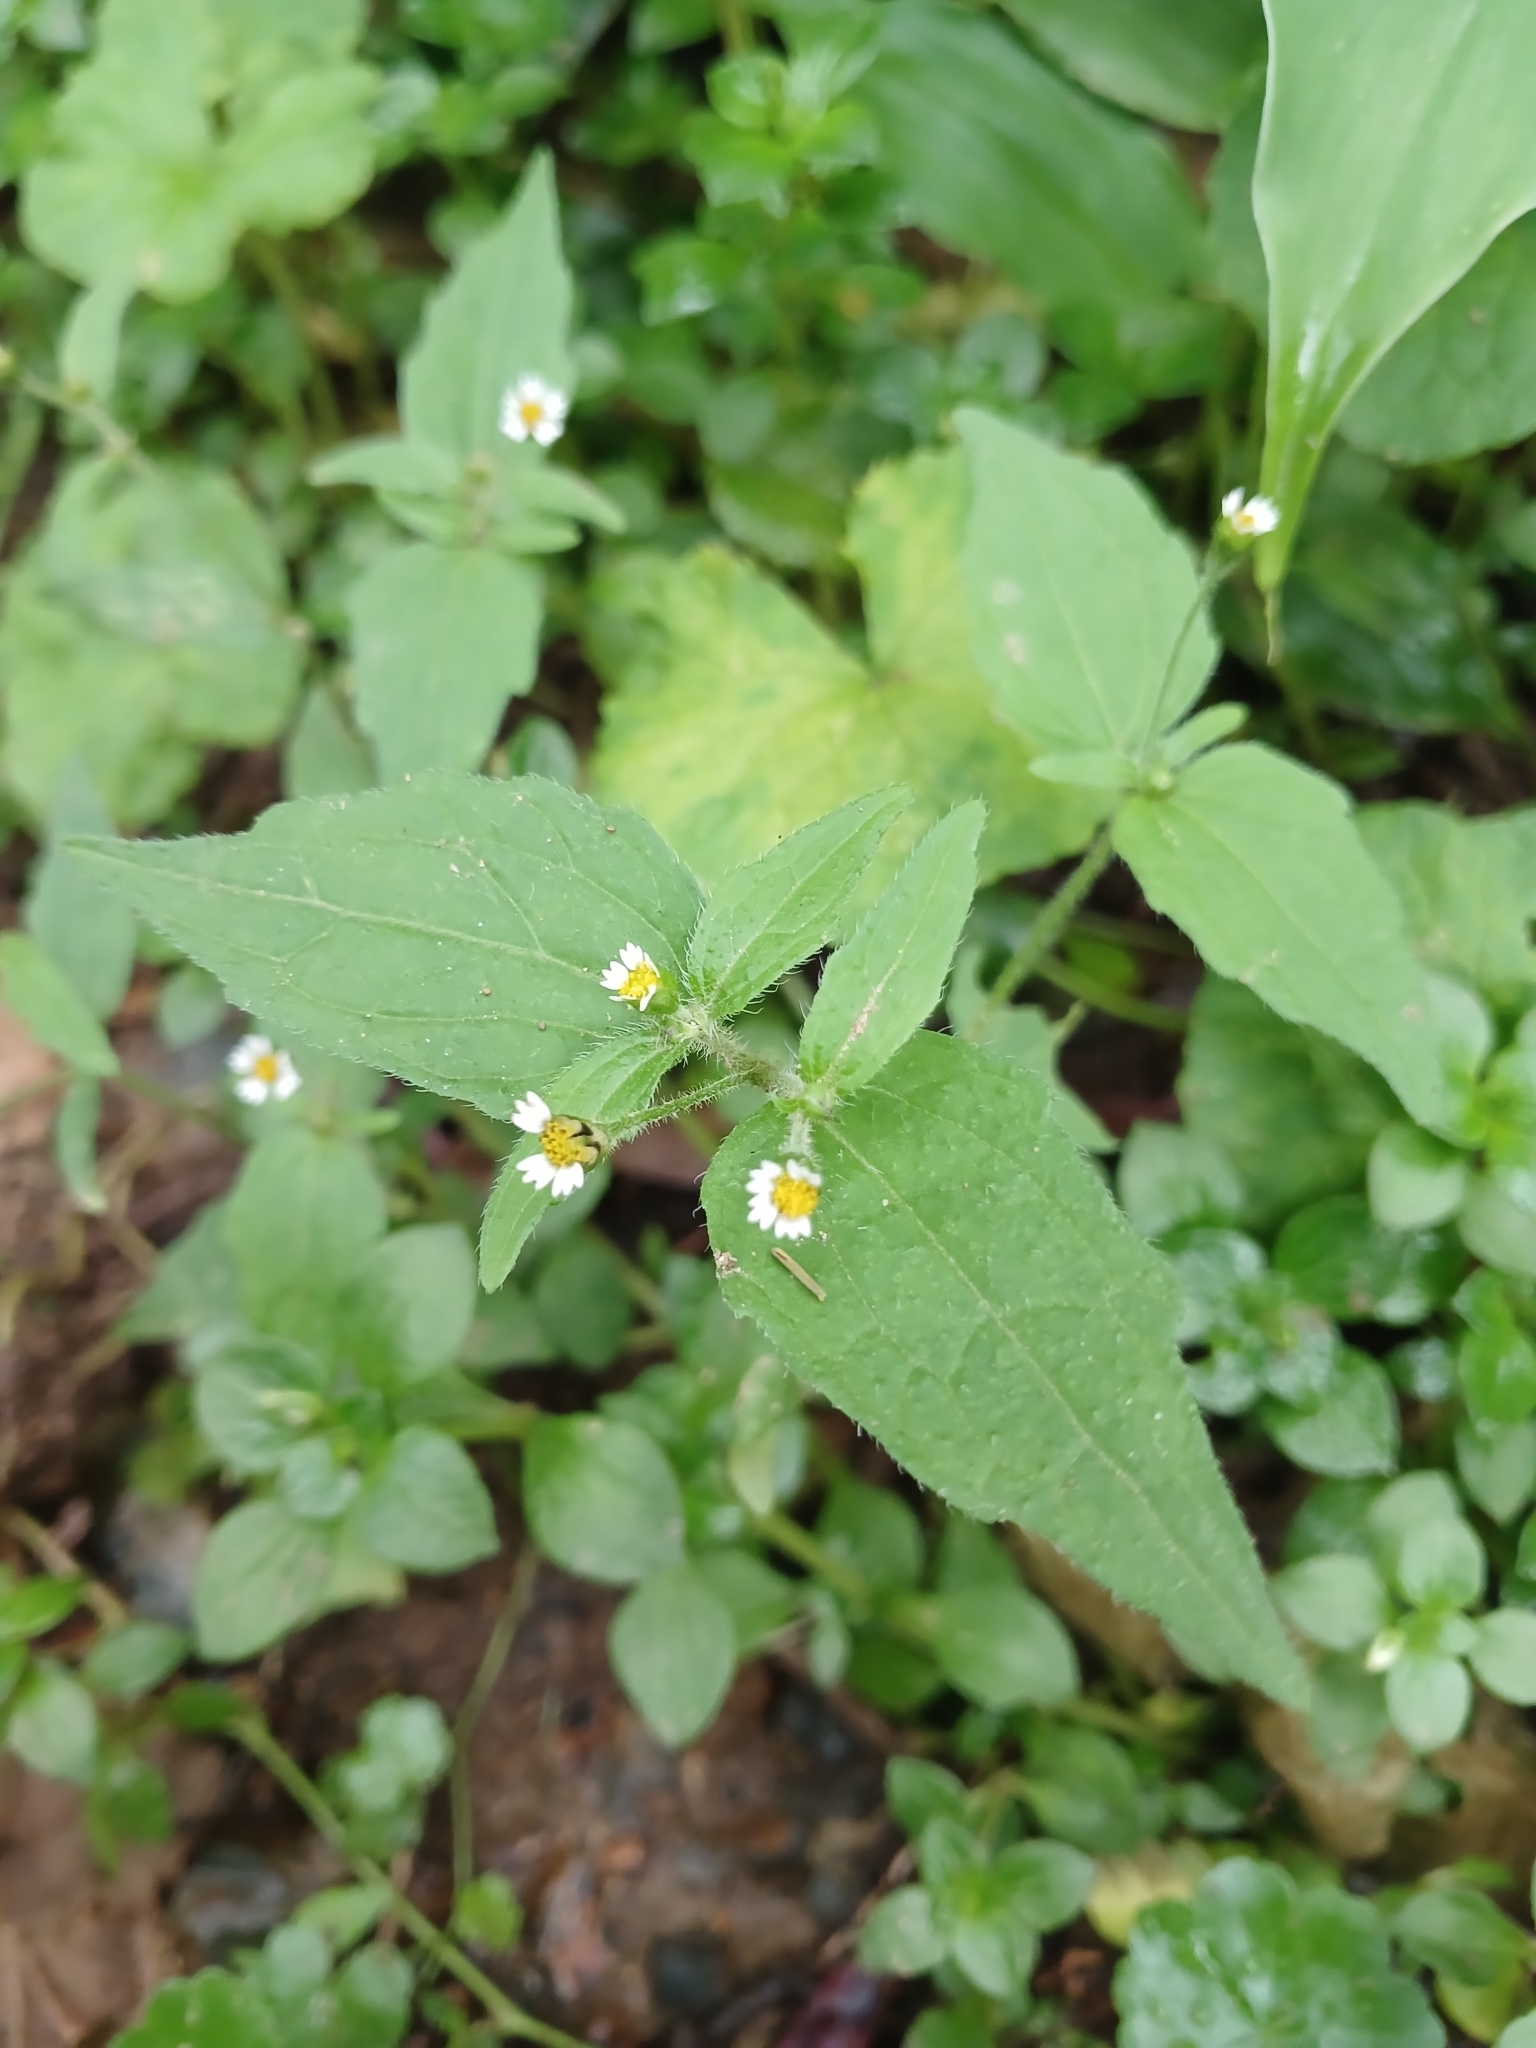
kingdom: Plantae
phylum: Tracheophyta
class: Magnoliopsida
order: Asterales
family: Asteraceae
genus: Galinsoga
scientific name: Galinsoga quadriradiata
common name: Shaggy soldier
